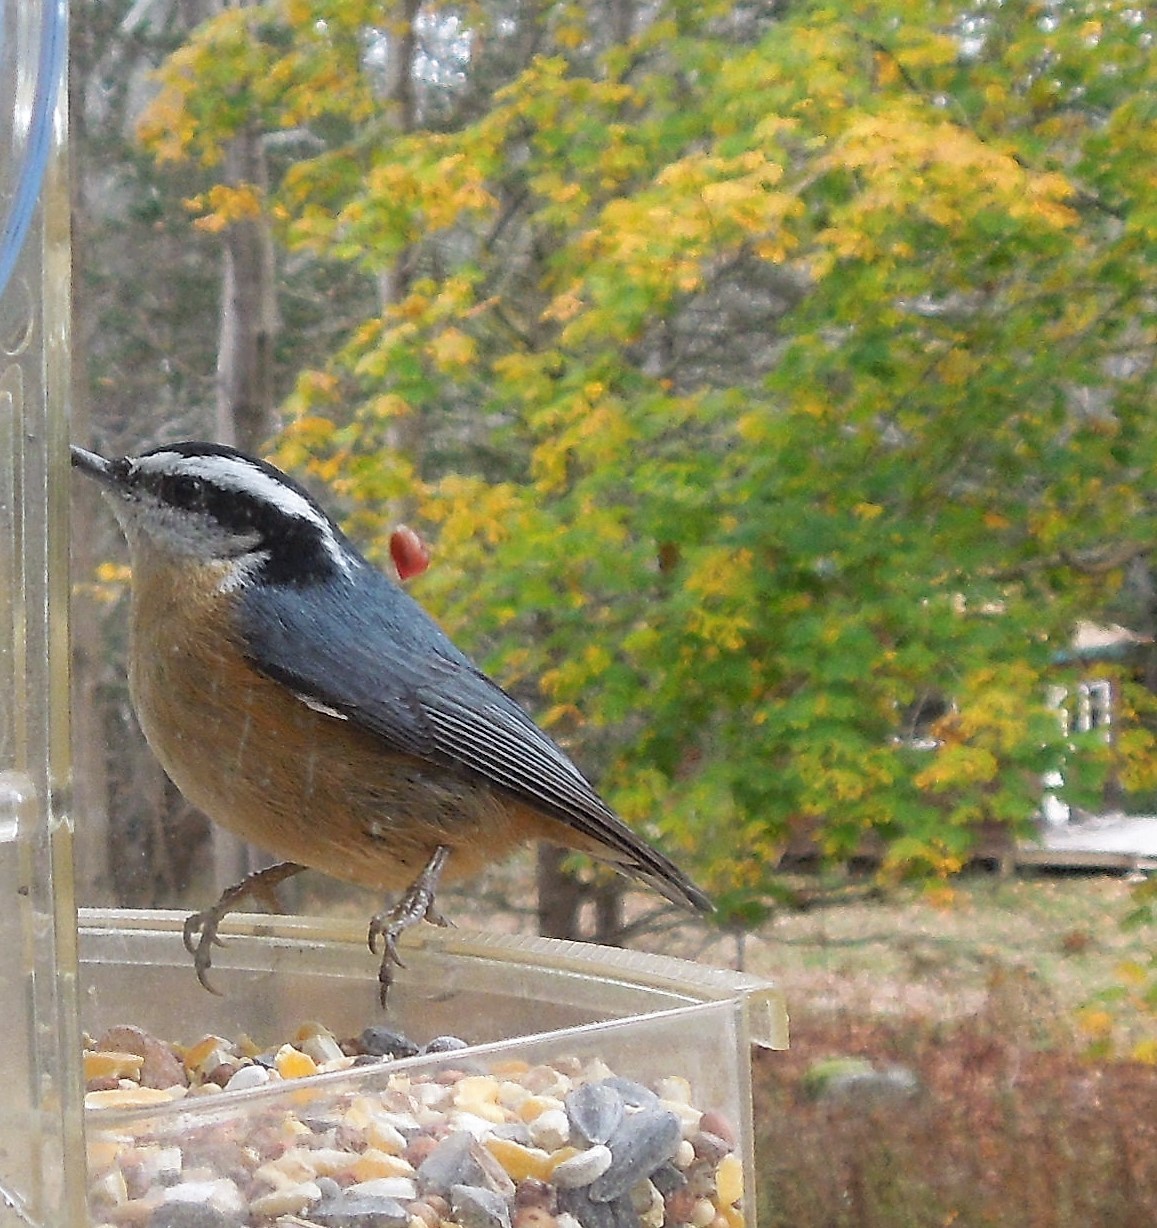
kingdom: Animalia
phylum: Chordata
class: Aves
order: Passeriformes
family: Sittidae
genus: Sitta
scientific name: Sitta canadensis
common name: Red-breasted nuthatch
